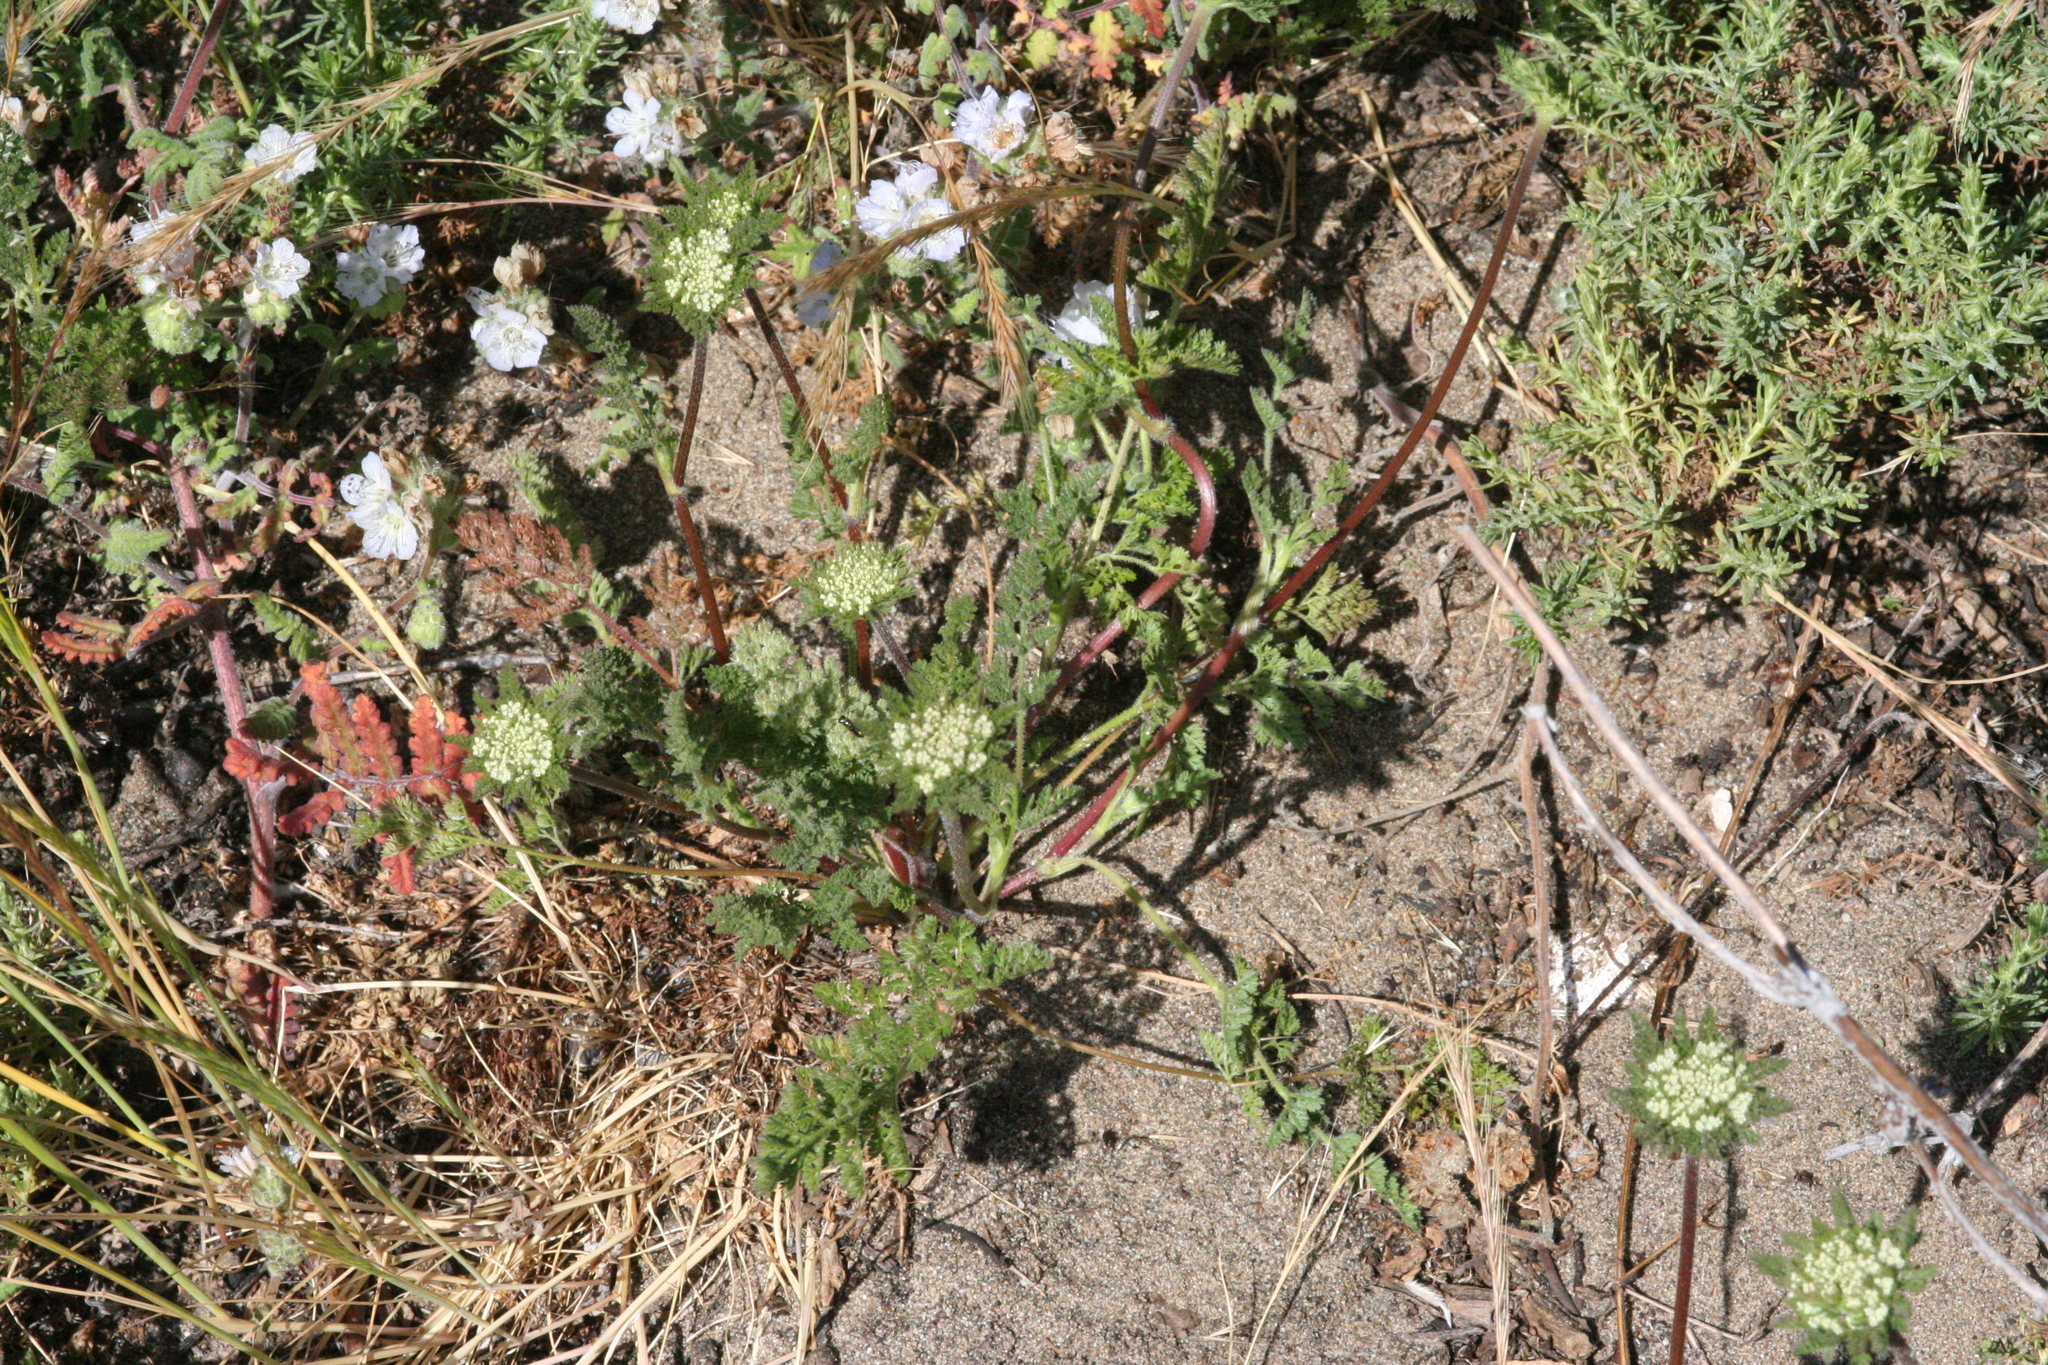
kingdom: Plantae
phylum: Tracheophyta
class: Magnoliopsida
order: Apiales
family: Apiaceae
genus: Daucus
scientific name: Daucus pusillus
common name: Southwest wild carrot
